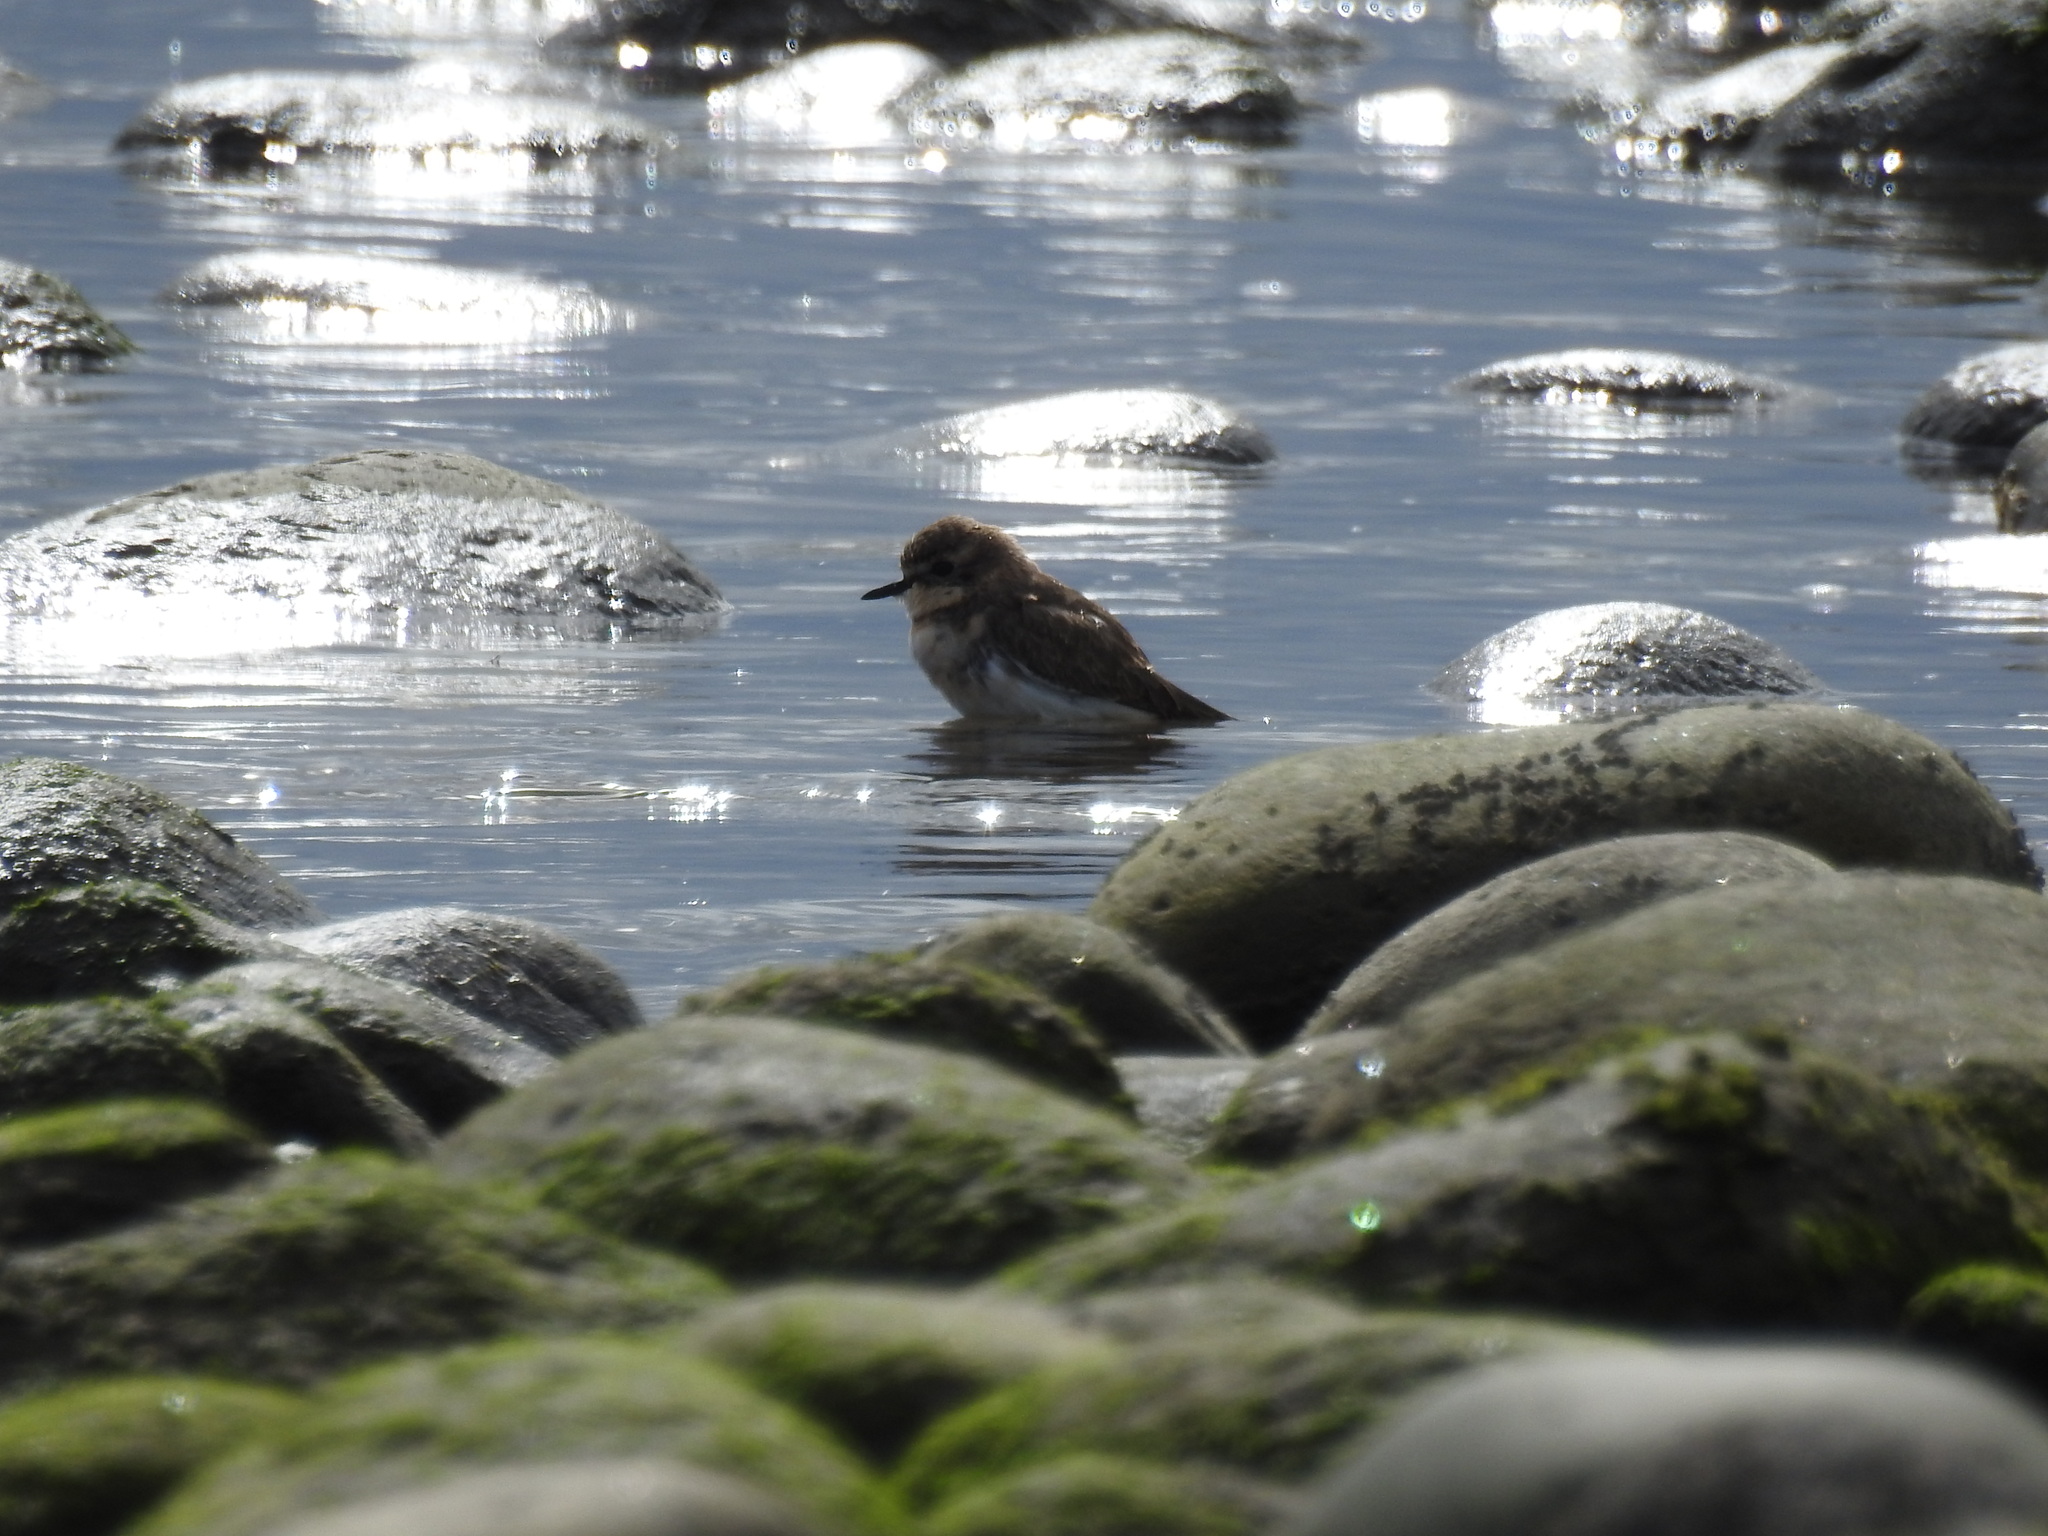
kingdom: Animalia
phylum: Chordata
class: Aves
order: Charadriiformes
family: Charadriidae
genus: Anarhynchus
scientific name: Anarhynchus
